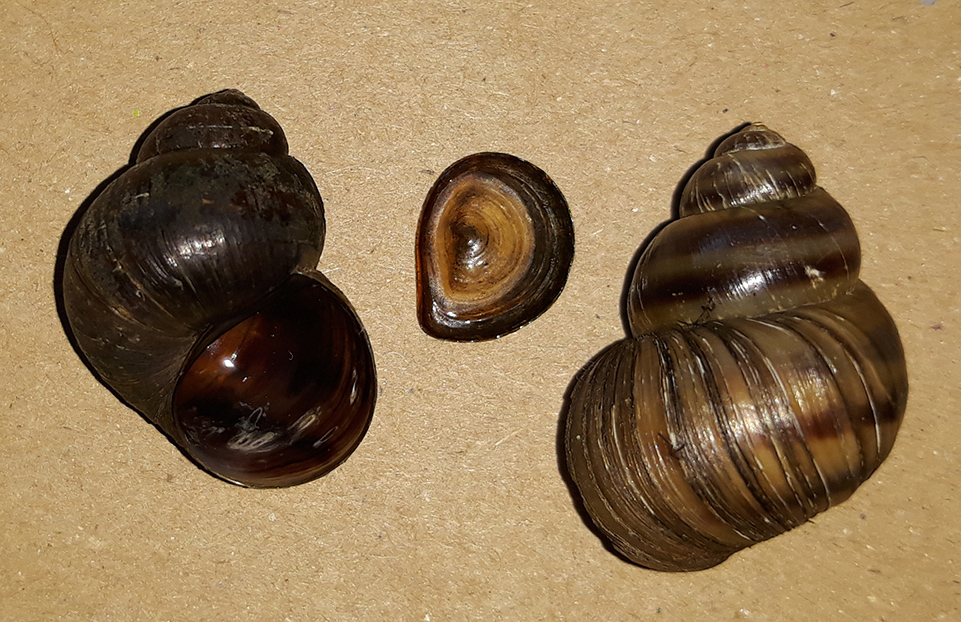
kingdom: Animalia
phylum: Mollusca
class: Gastropoda
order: Architaenioglossa
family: Viviparidae
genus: Viviparus
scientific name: Viviparus viviparus
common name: River snail
